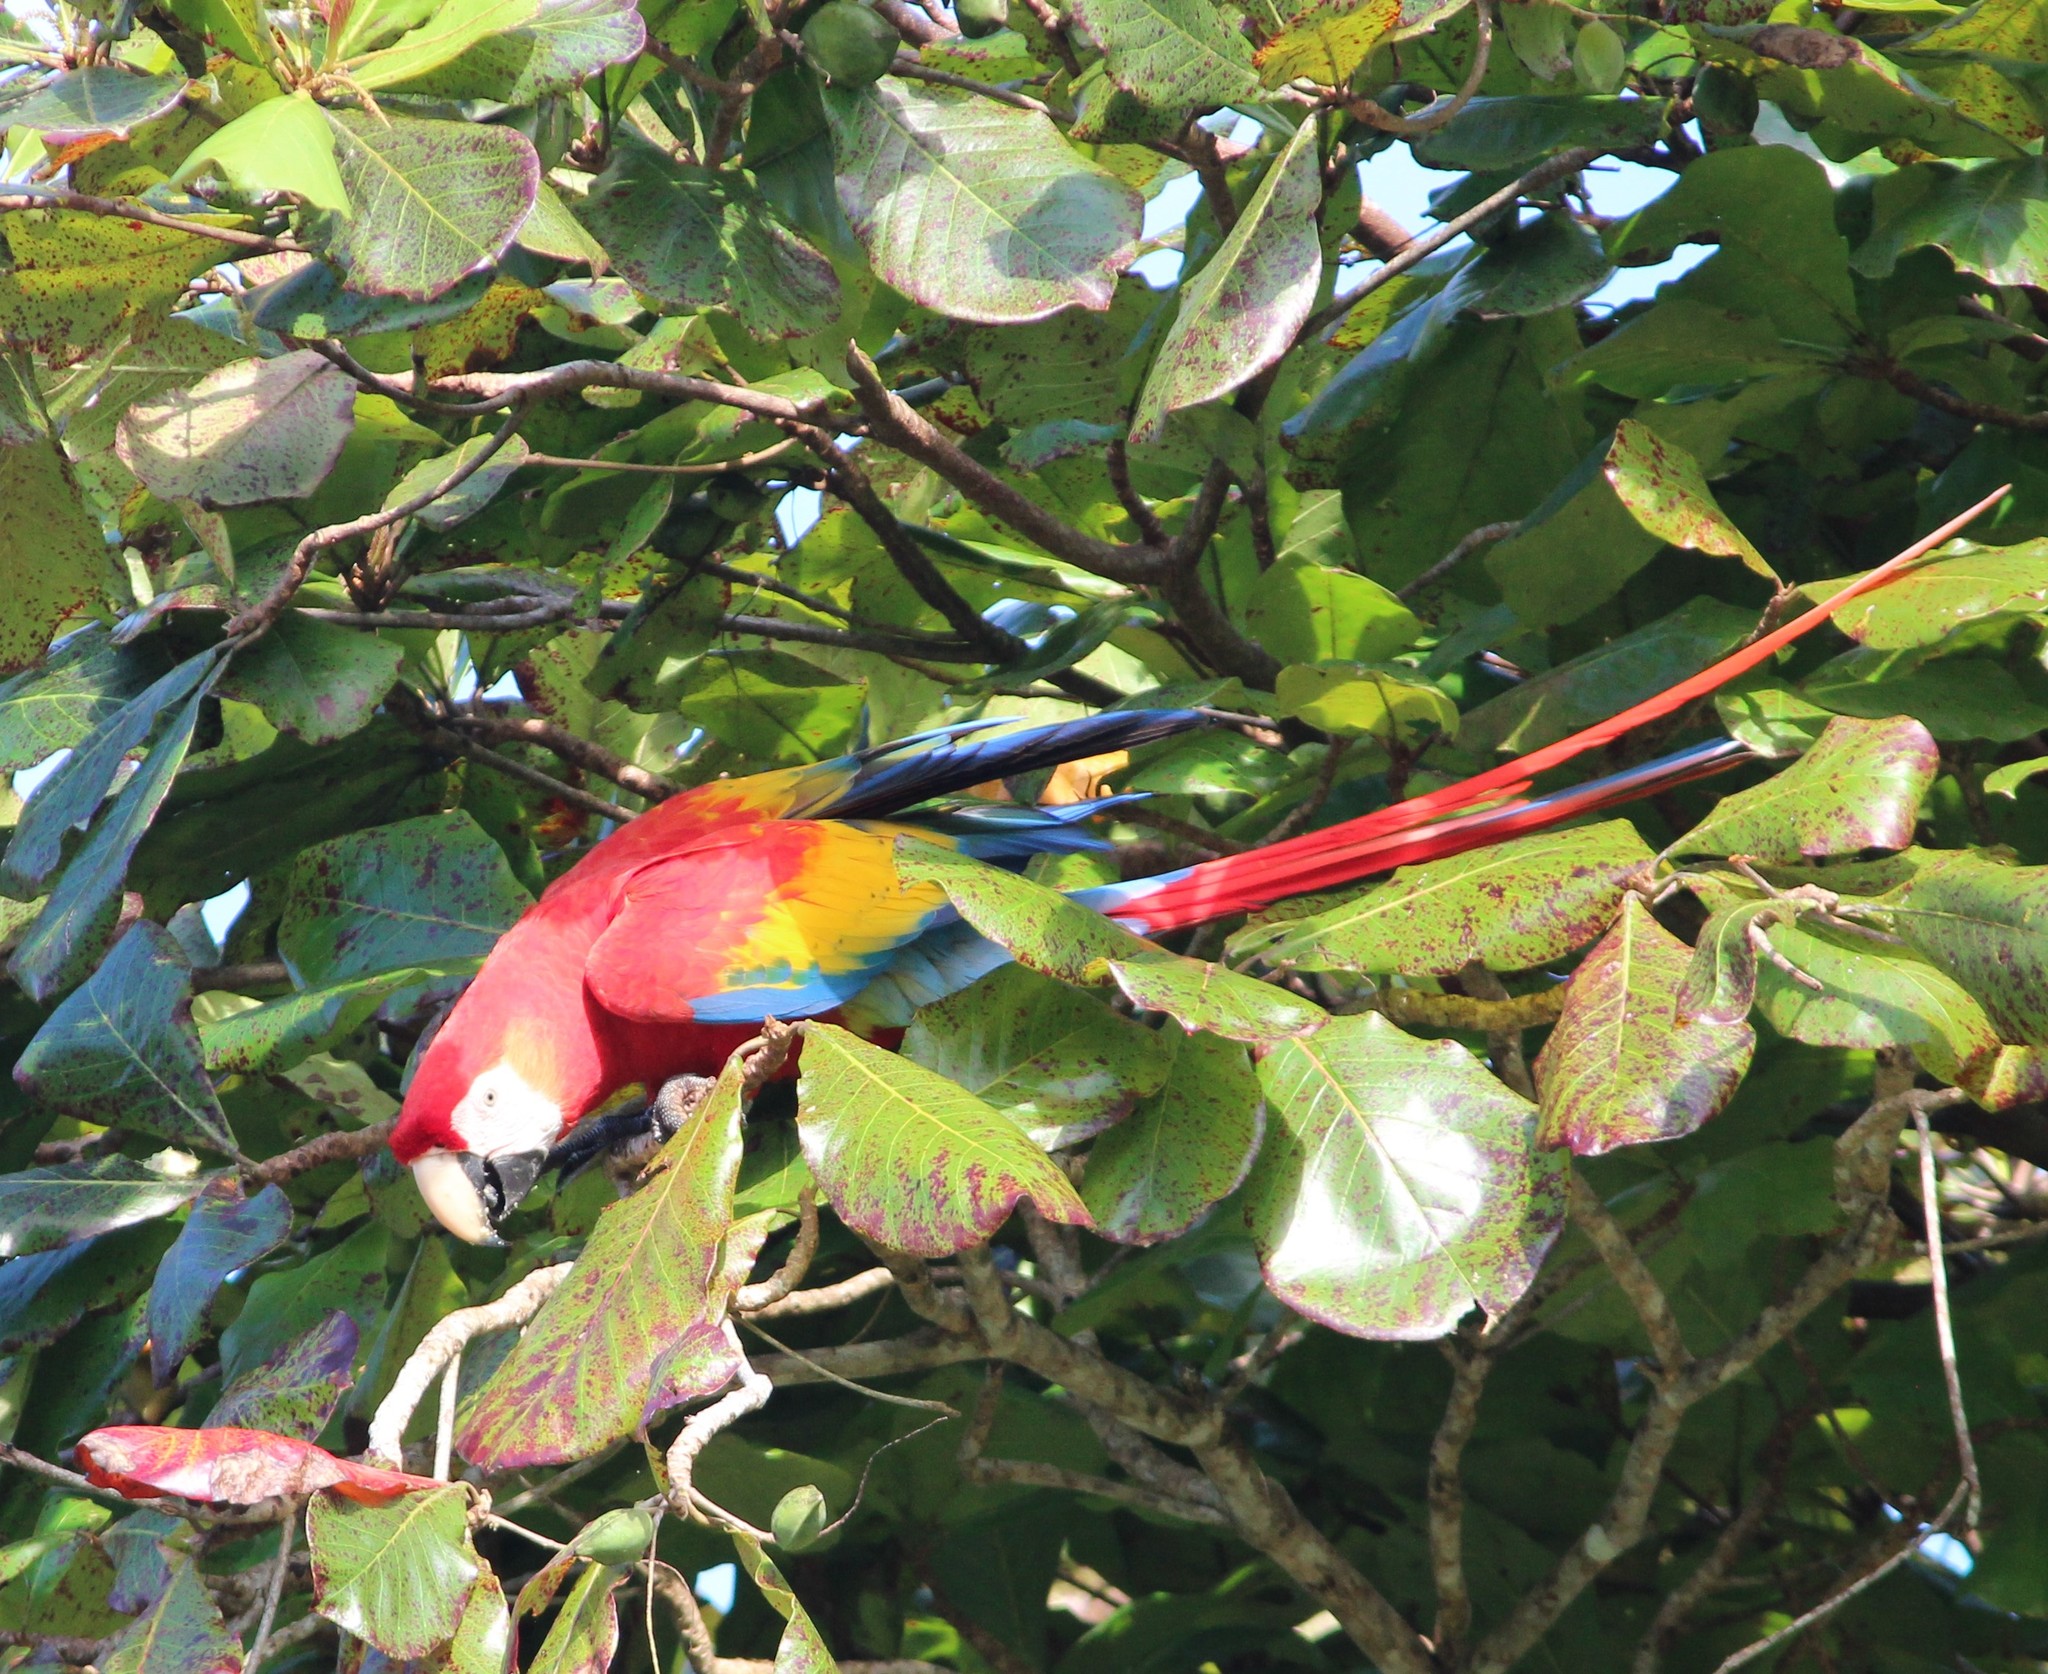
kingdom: Animalia
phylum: Chordata
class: Aves
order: Psittaciformes
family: Psittacidae
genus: Ara
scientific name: Ara macao
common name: Scarlet macaw
